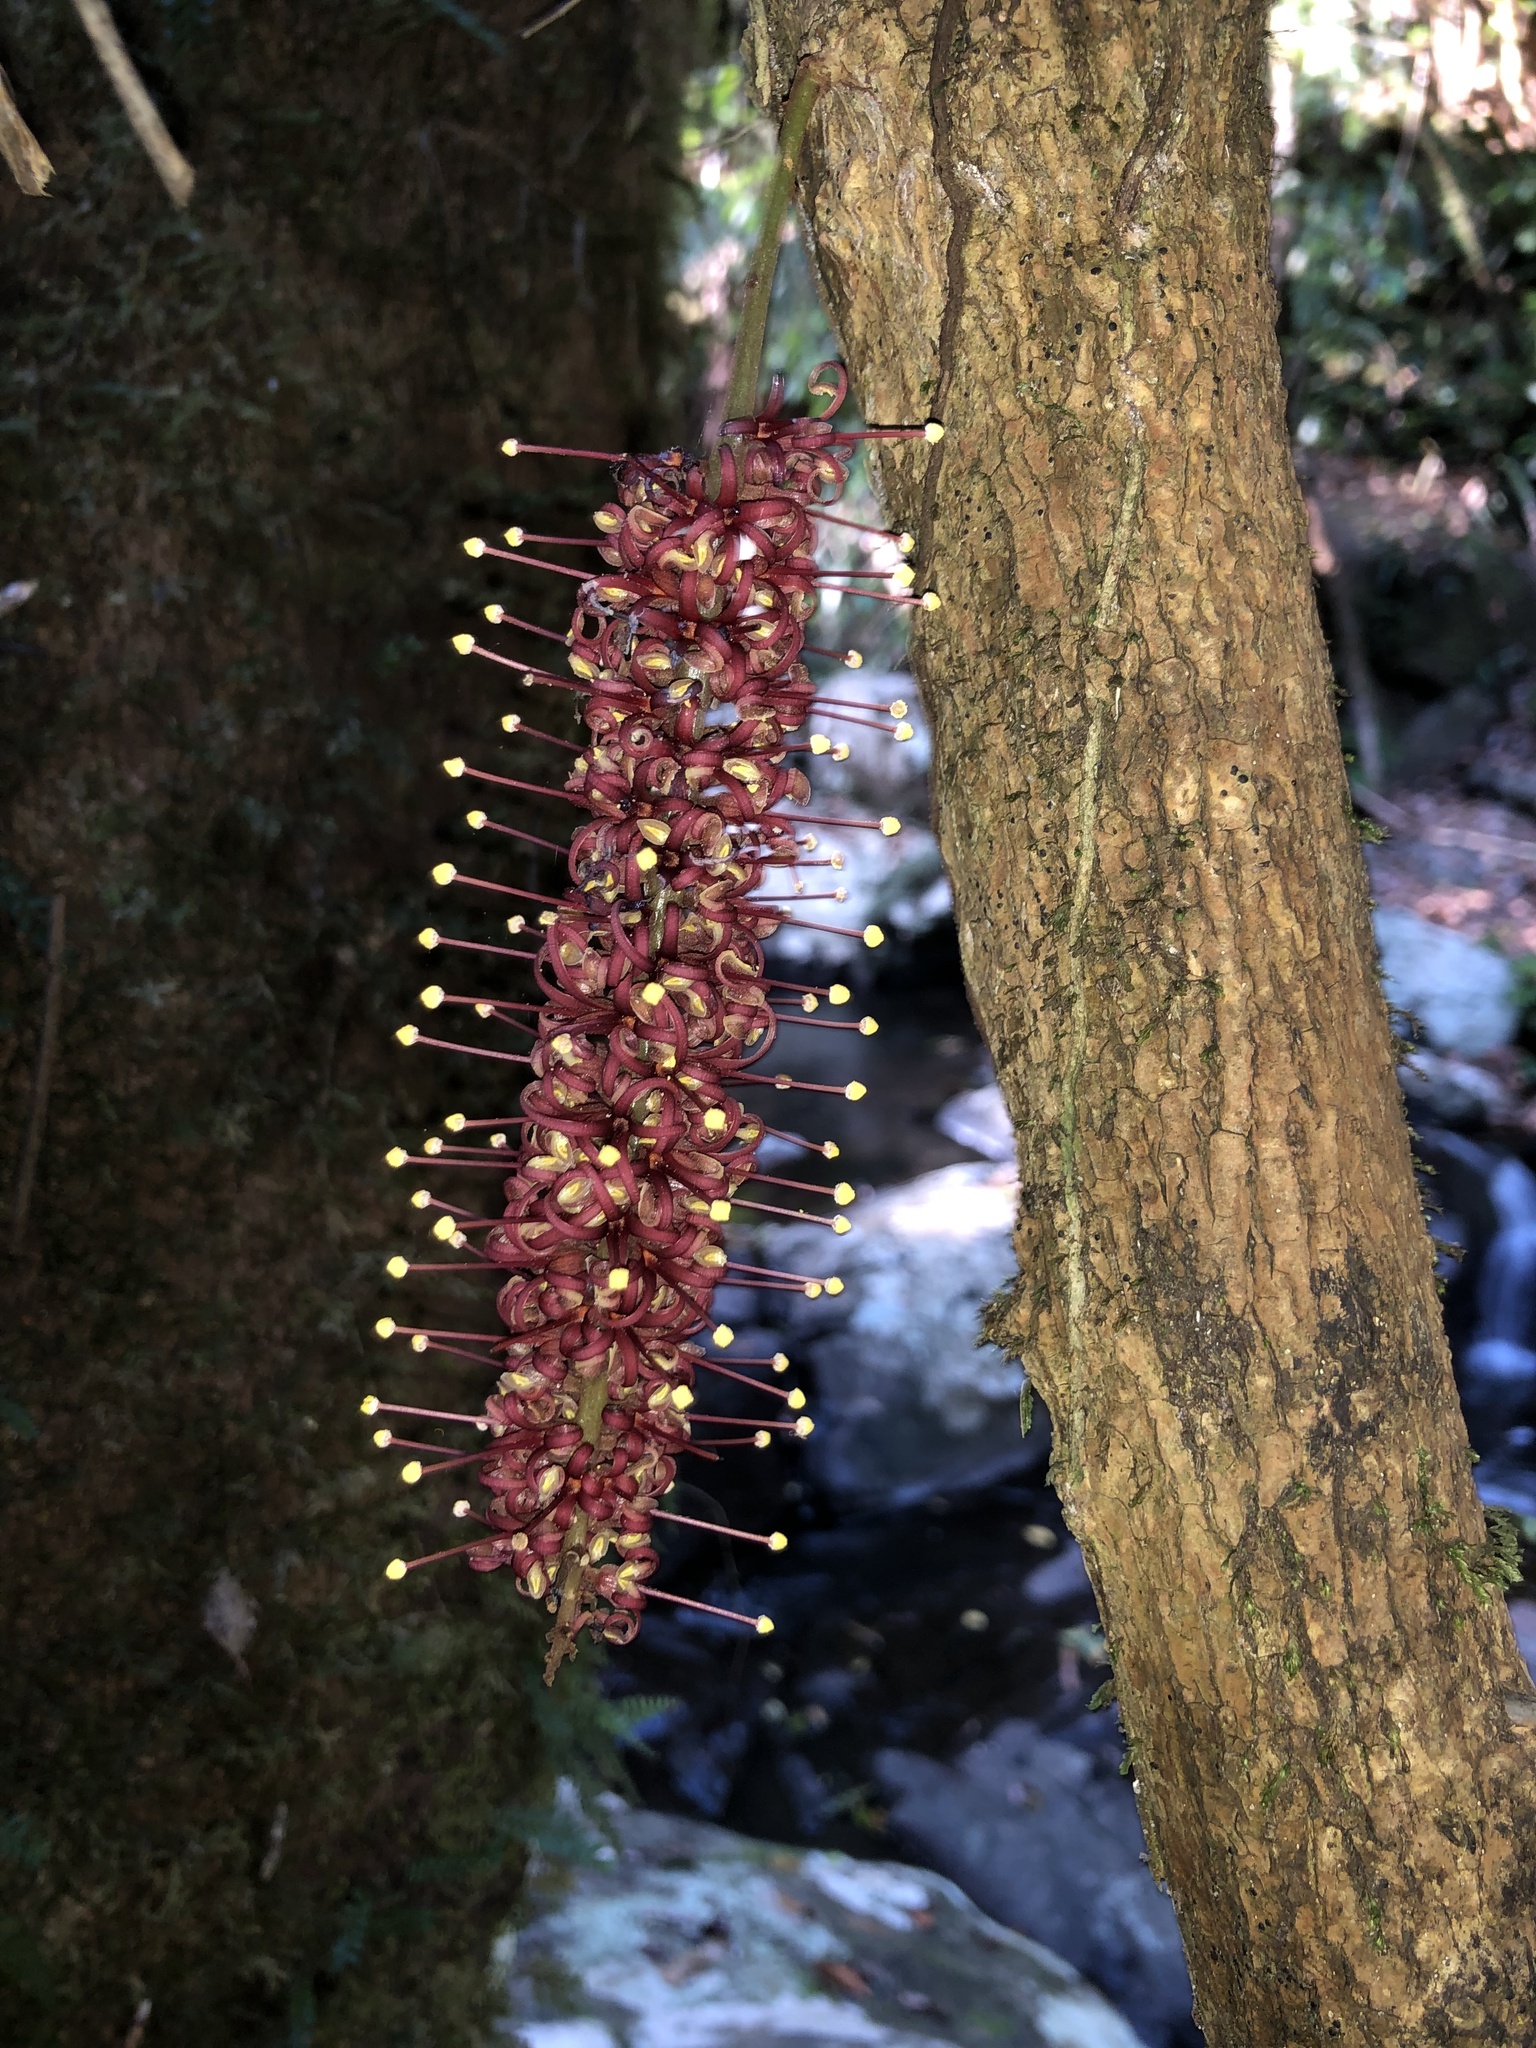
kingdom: Plantae
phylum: Tracheophyta
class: Magnoliopsida
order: Proteales
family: Proteaceae
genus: Hicksbeachia
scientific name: Hicksbeachia pinnatifolia
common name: Beefnut
